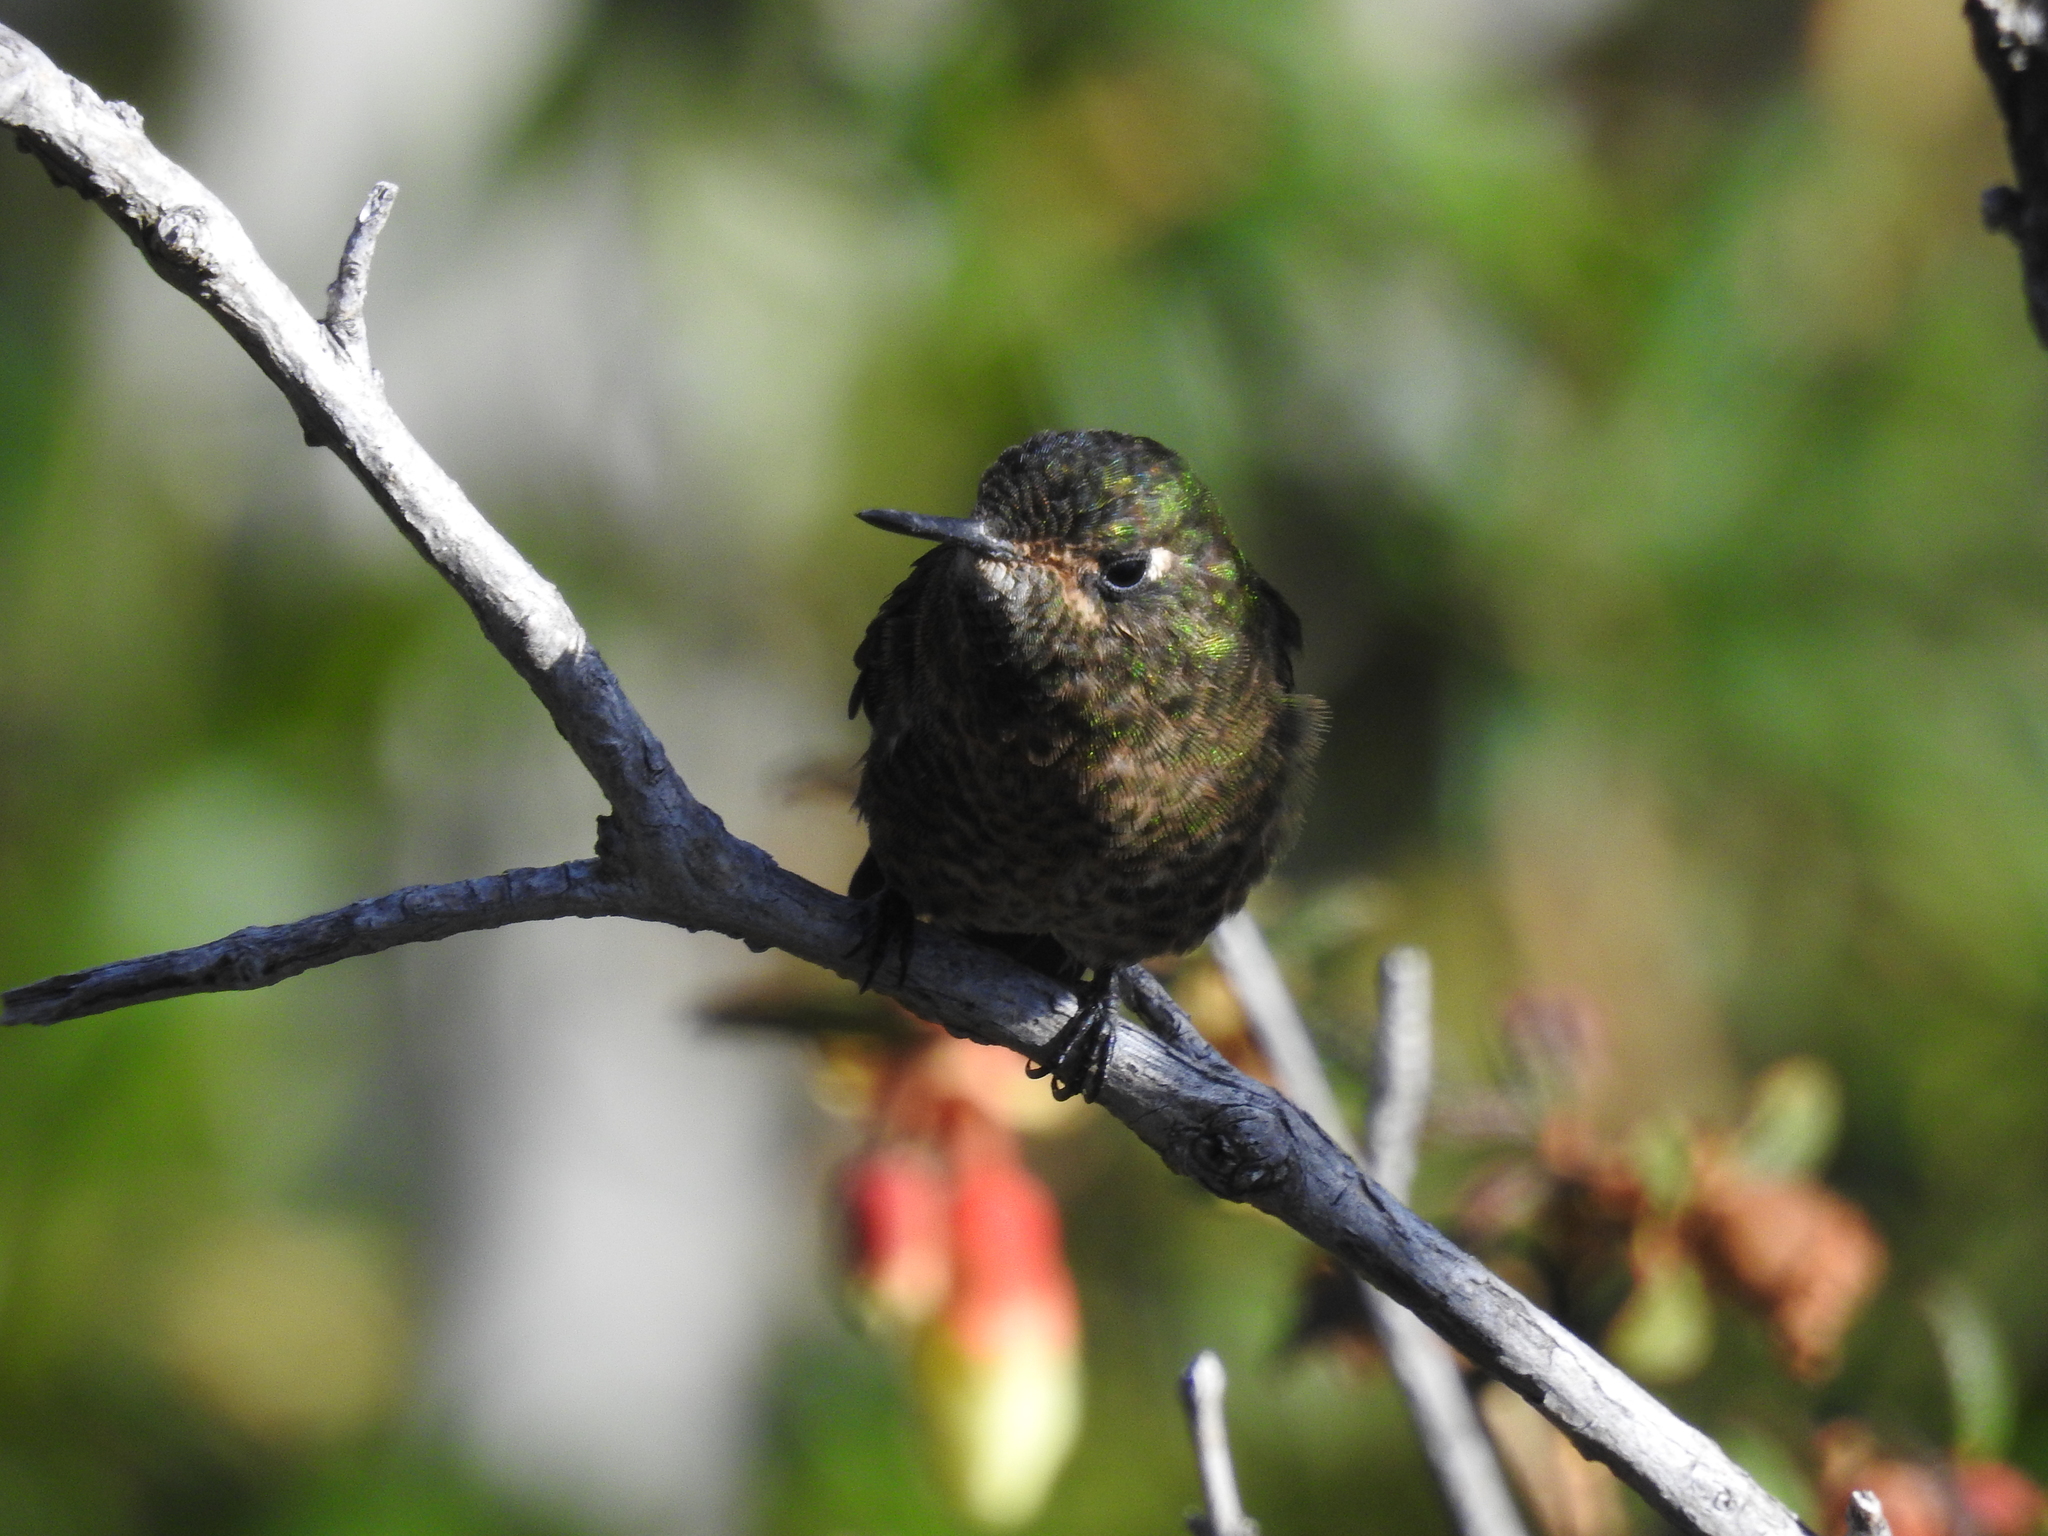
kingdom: Animalia
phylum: Chordata
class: Aves
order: Apodiformes
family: Trochilidae
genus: Metallura
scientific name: Metallura tyrianthina
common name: Tyrian metaltail
